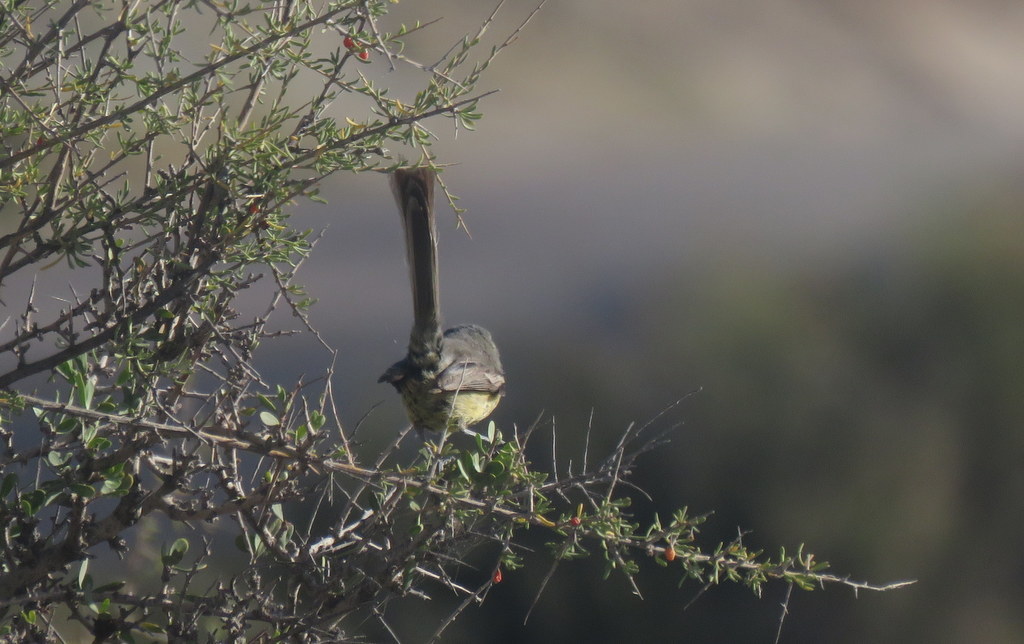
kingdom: Animalia
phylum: Chordata
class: Aves
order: Passeriformes
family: Tyrannidae
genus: Stigmatura
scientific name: Stigmatura budytoides
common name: Greater wagtail-tyrant
